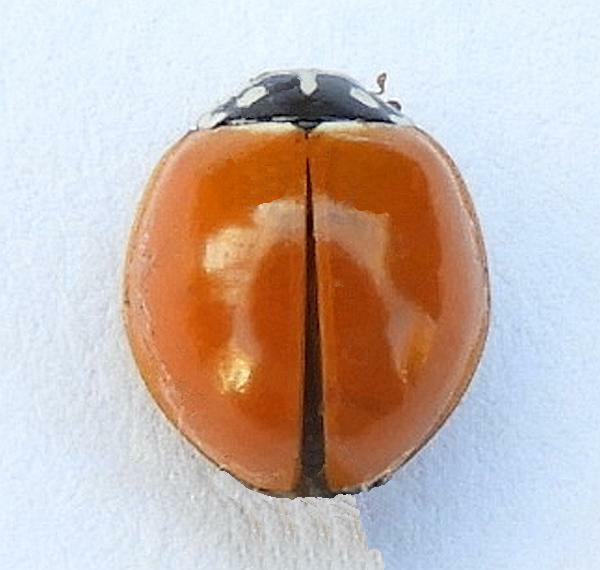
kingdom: Animalia
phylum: Arthropoda
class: Insecta
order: Coleoptera
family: Coccinellidae
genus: Cycloneda
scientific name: Cycloneda sanguinea
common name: Ladybird beetle
